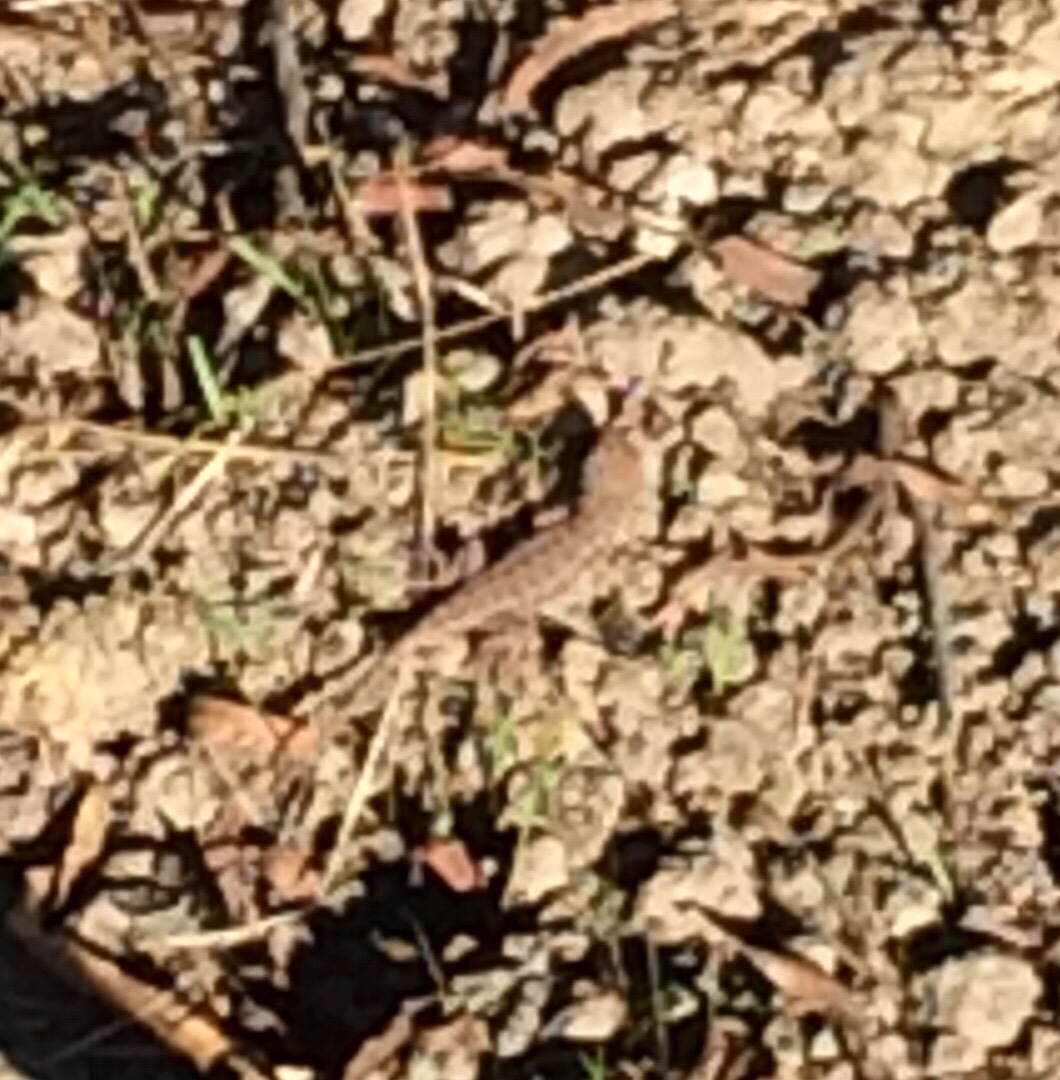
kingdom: Animalia
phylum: Chordata
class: Squamata
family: Phrynosomatidae
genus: Sceloporus
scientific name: Sceloporus occidentalis
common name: Western fence lizard
